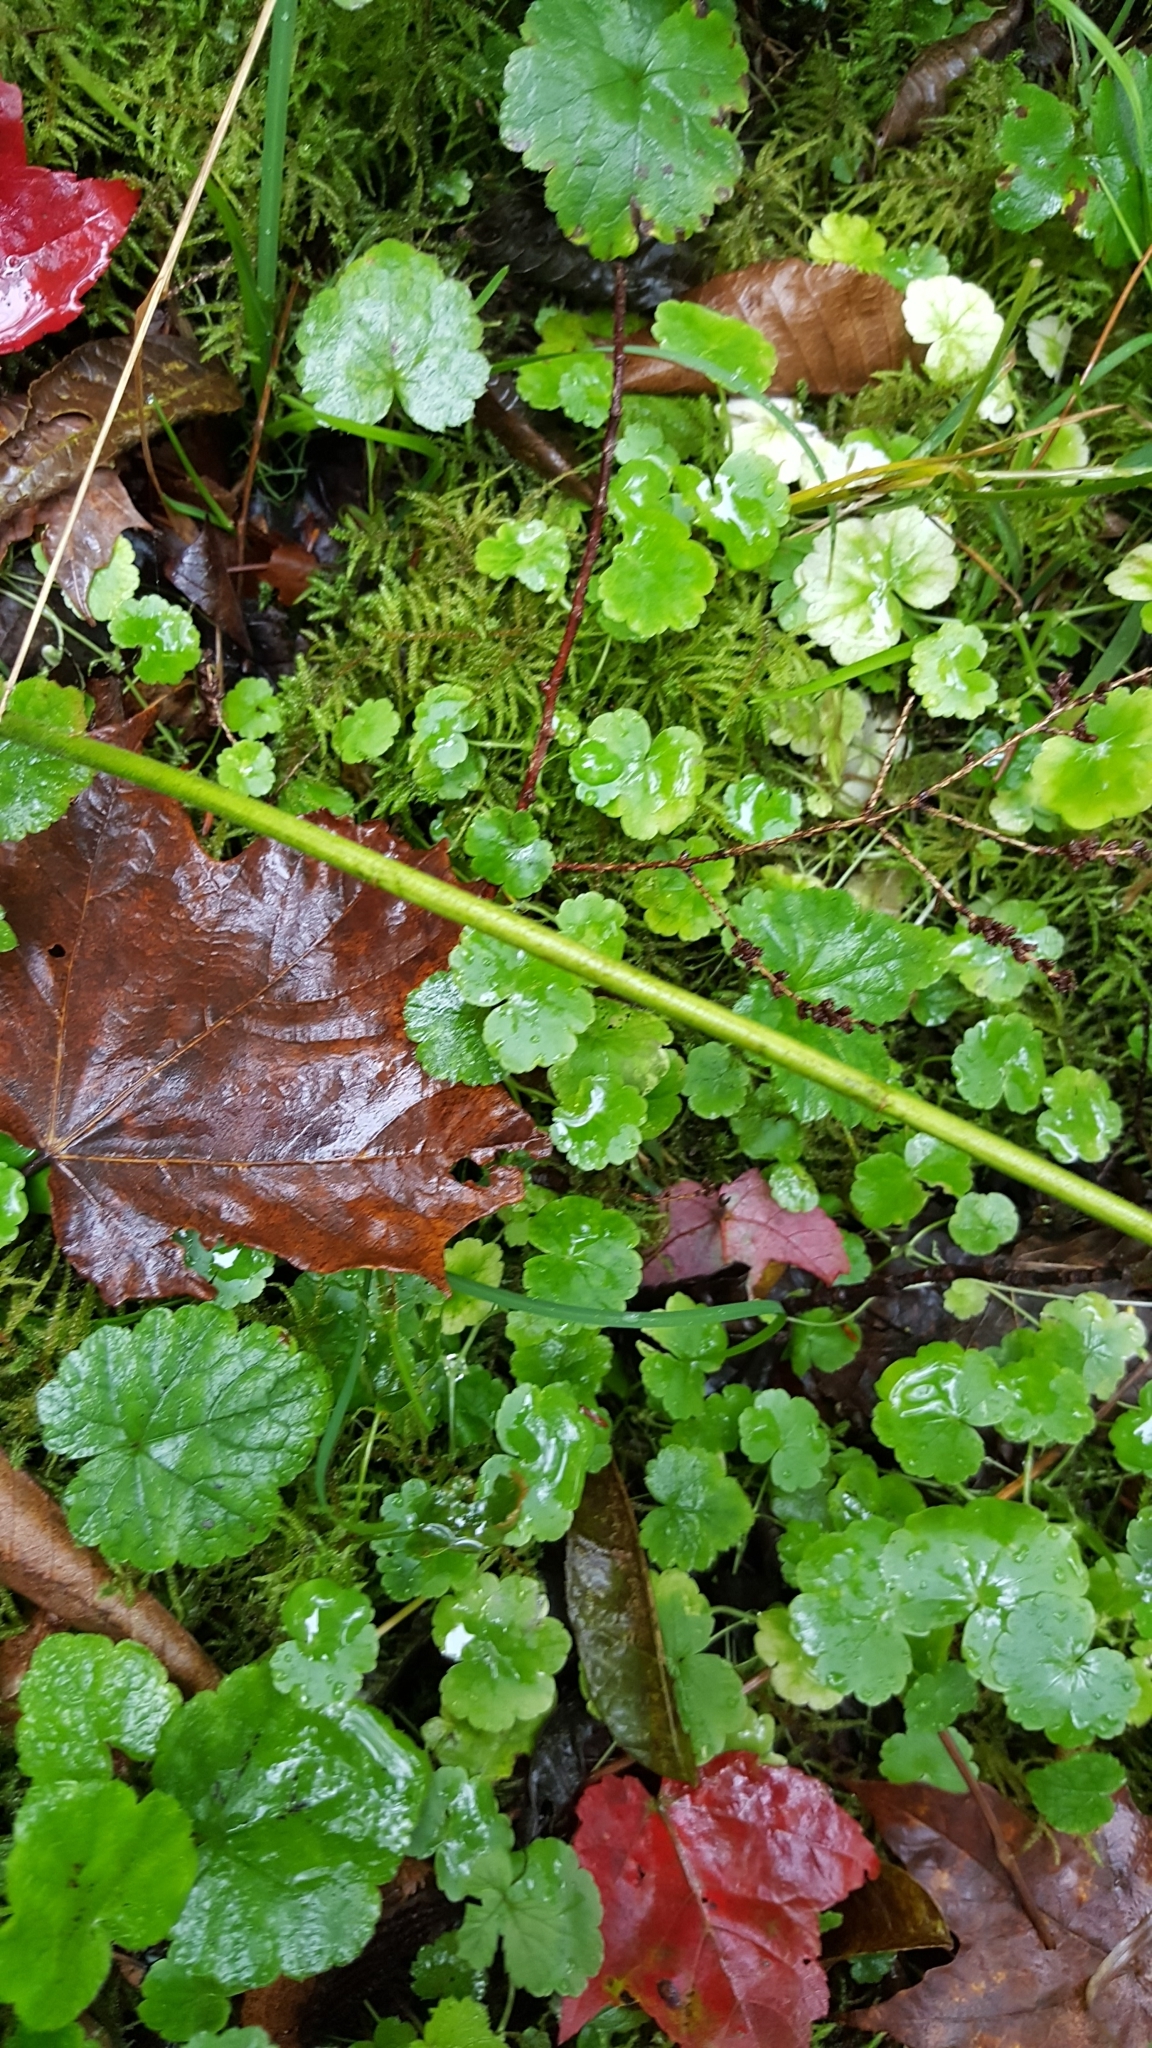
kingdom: Plantae
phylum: Tracheophyta
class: Magnoliopsida
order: Apiales
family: Araliaceae
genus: Hydrocotyle
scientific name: Hydrocotyle americana
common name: American water-pennywort
